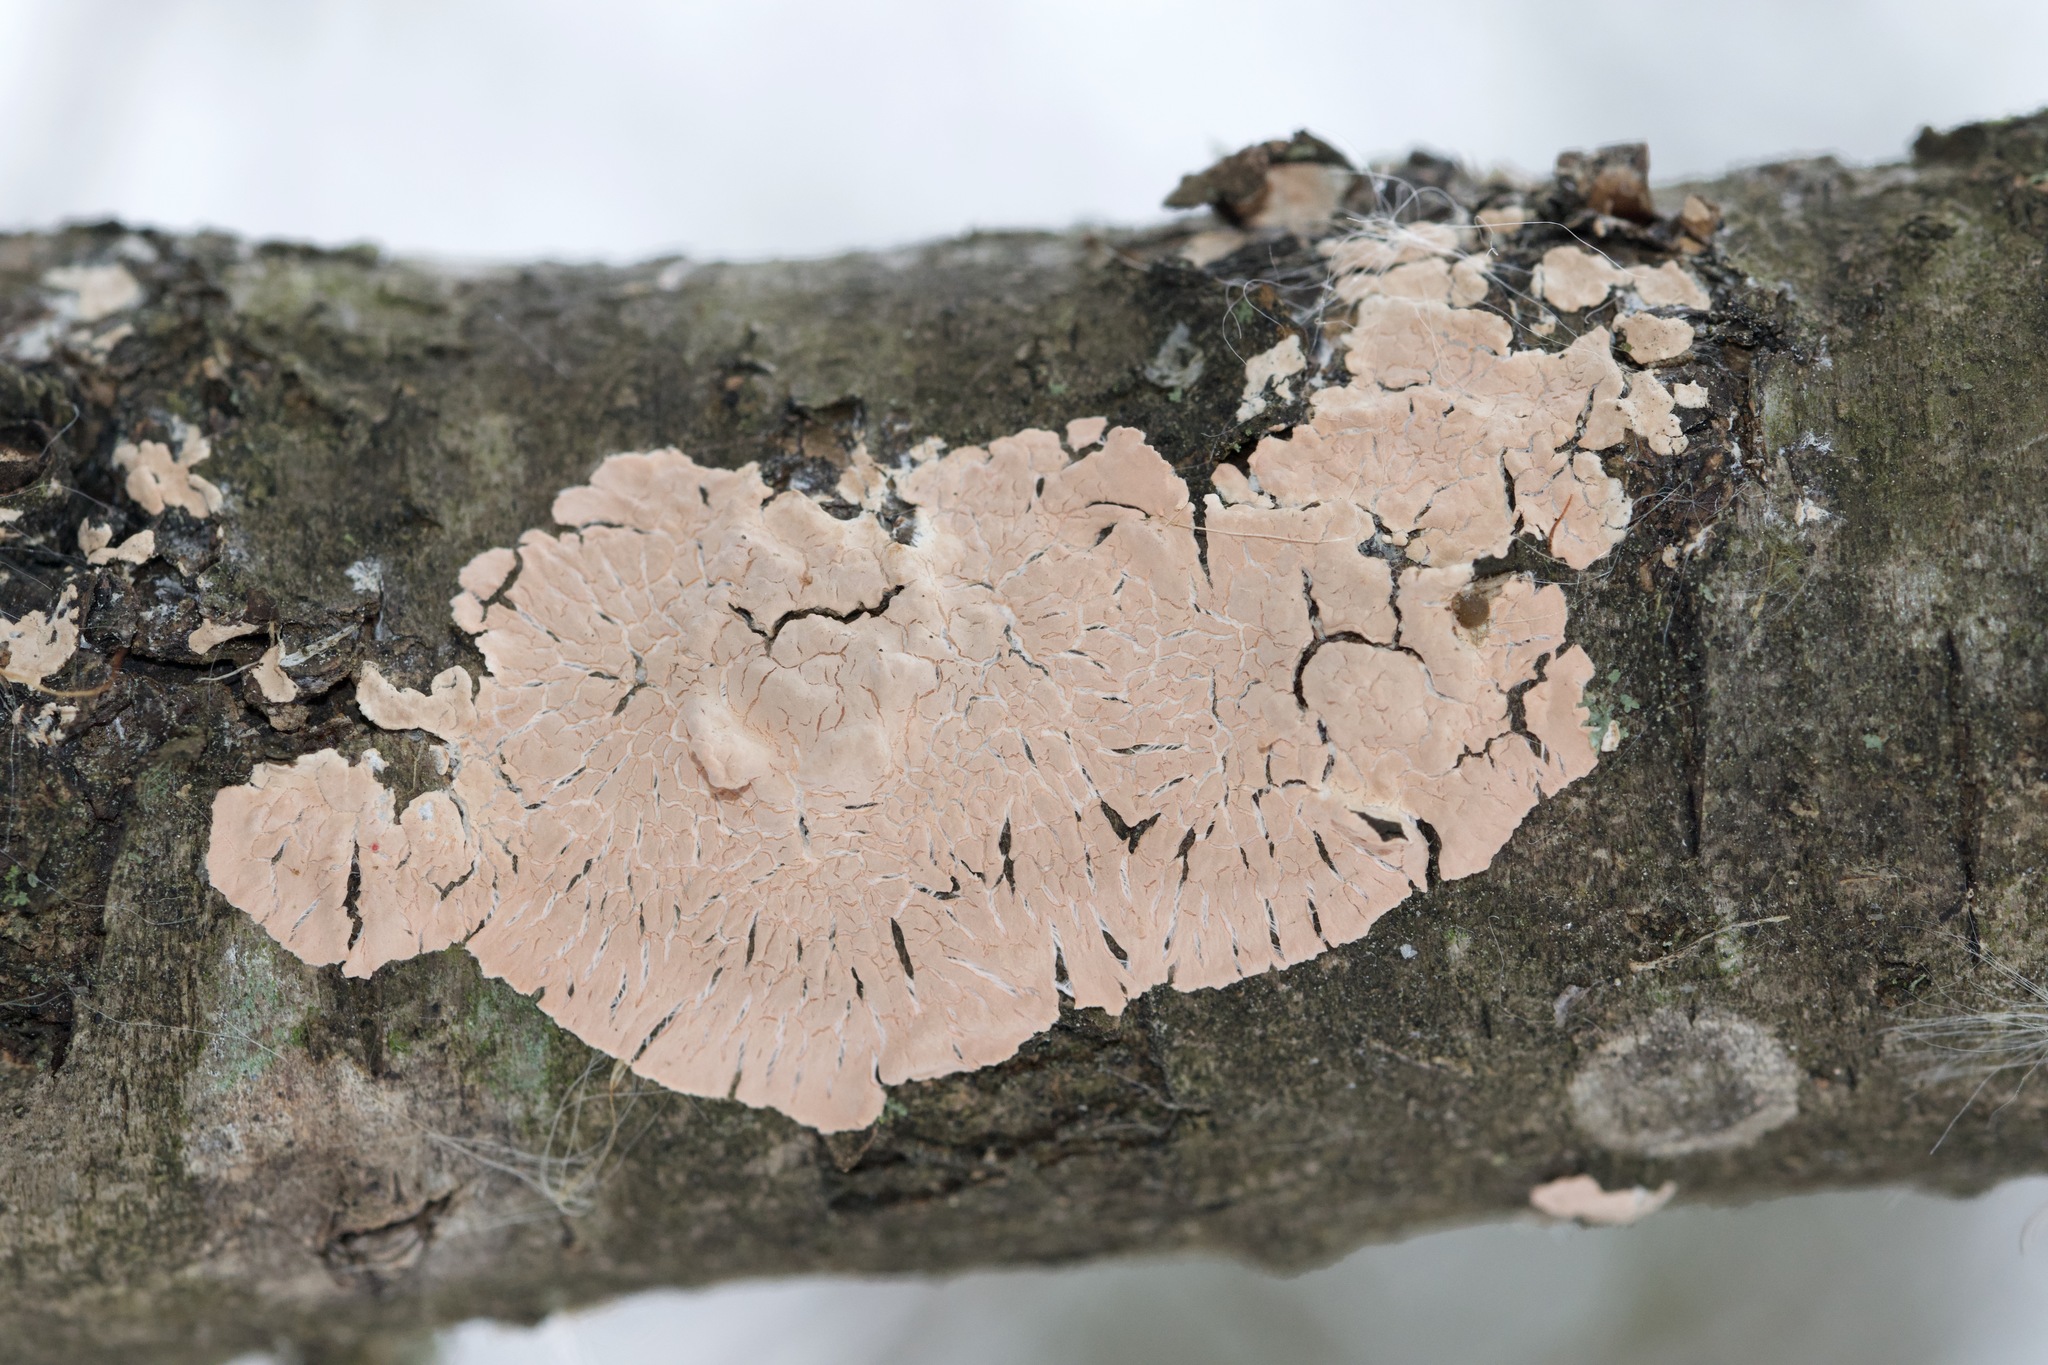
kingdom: Fungi
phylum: Basidiomycota
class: Agaricomycetes
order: Russulales
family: Peniophoraceae
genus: Peniophora
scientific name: Peniophora incarnata
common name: Rosy crust
